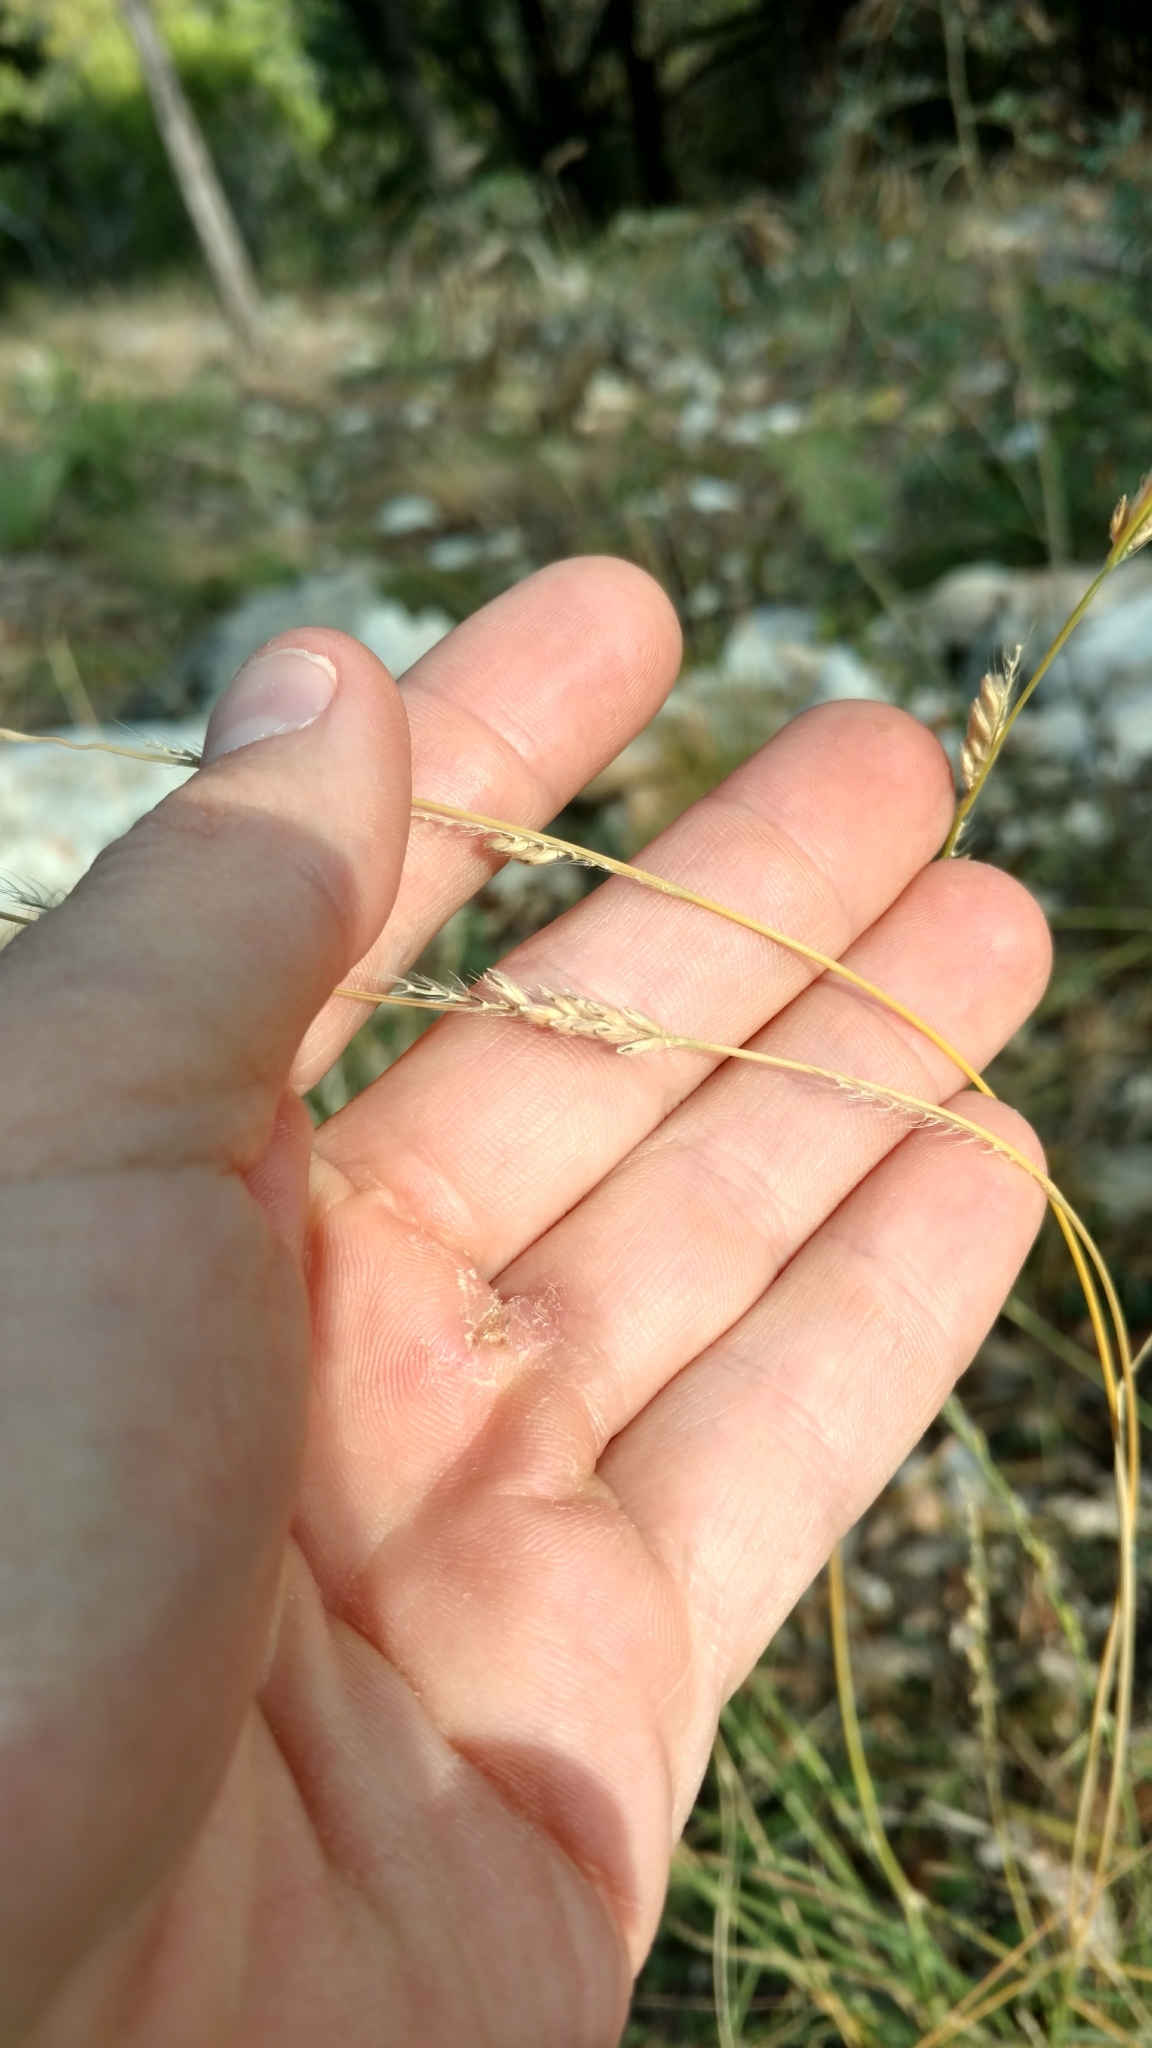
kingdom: Plantae
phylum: Tracheophyta
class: Liliopsida
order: Poales
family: Poaceae
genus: Eriochloa
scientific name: Eriochloa sericea
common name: Texas cup grass
